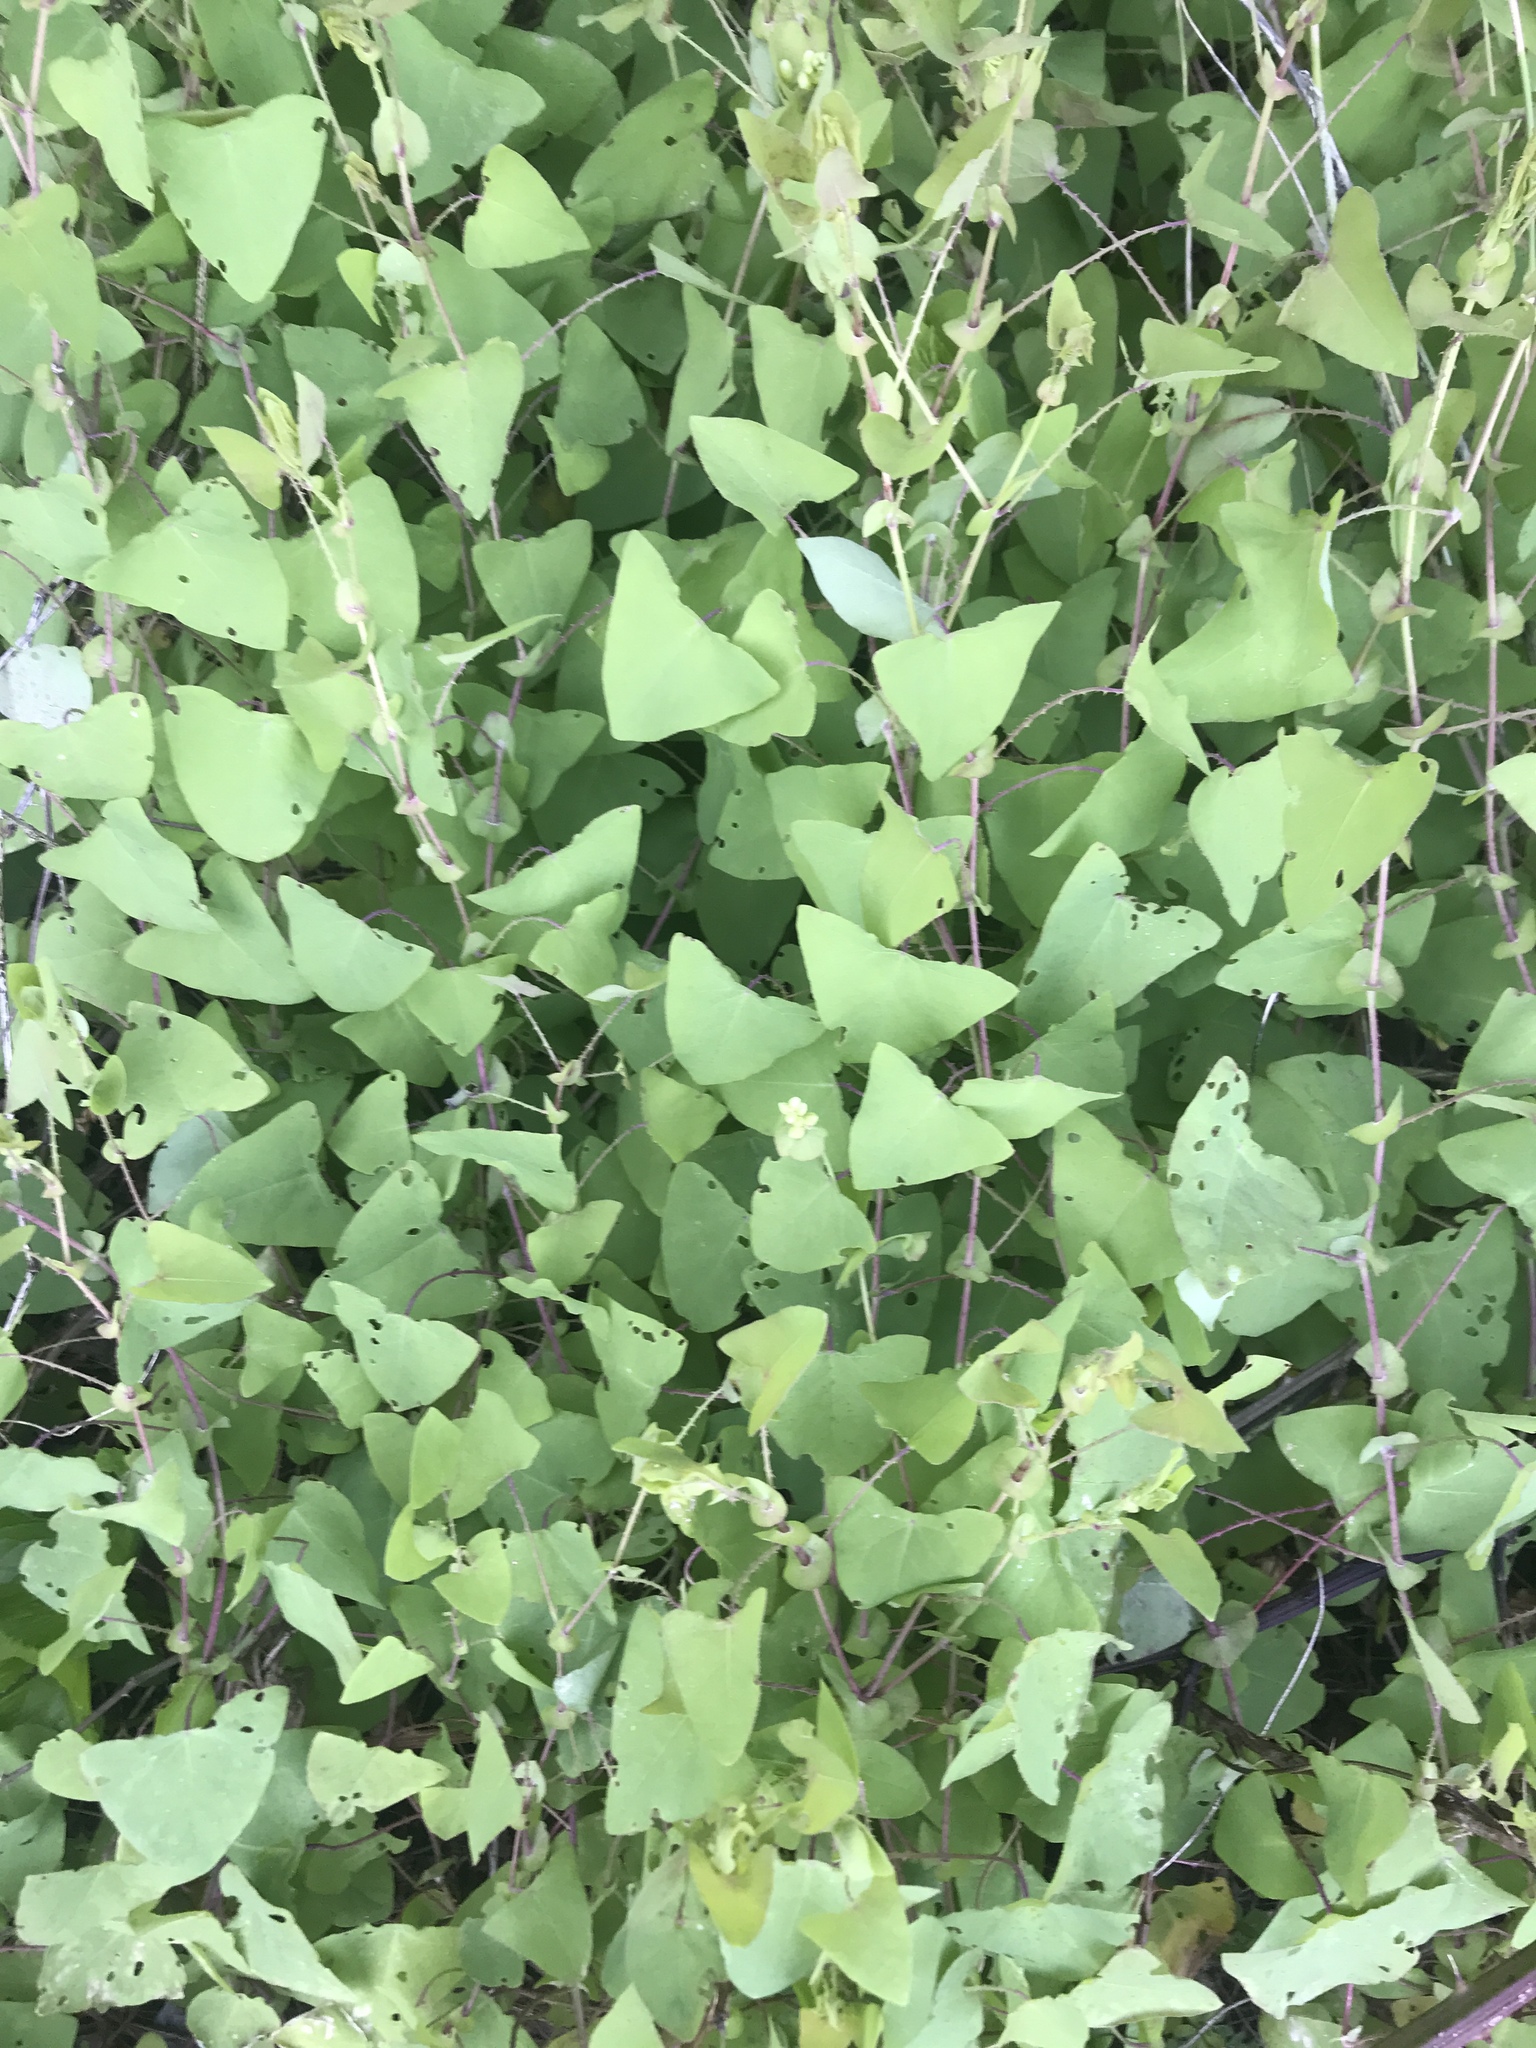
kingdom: Plantae
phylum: Tracheophyta
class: Magnoliopsida
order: Caryophyllales
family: Polygonaceae
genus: Persicaria
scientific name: Persicaria perfoliata
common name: Asiatic tearthumb
